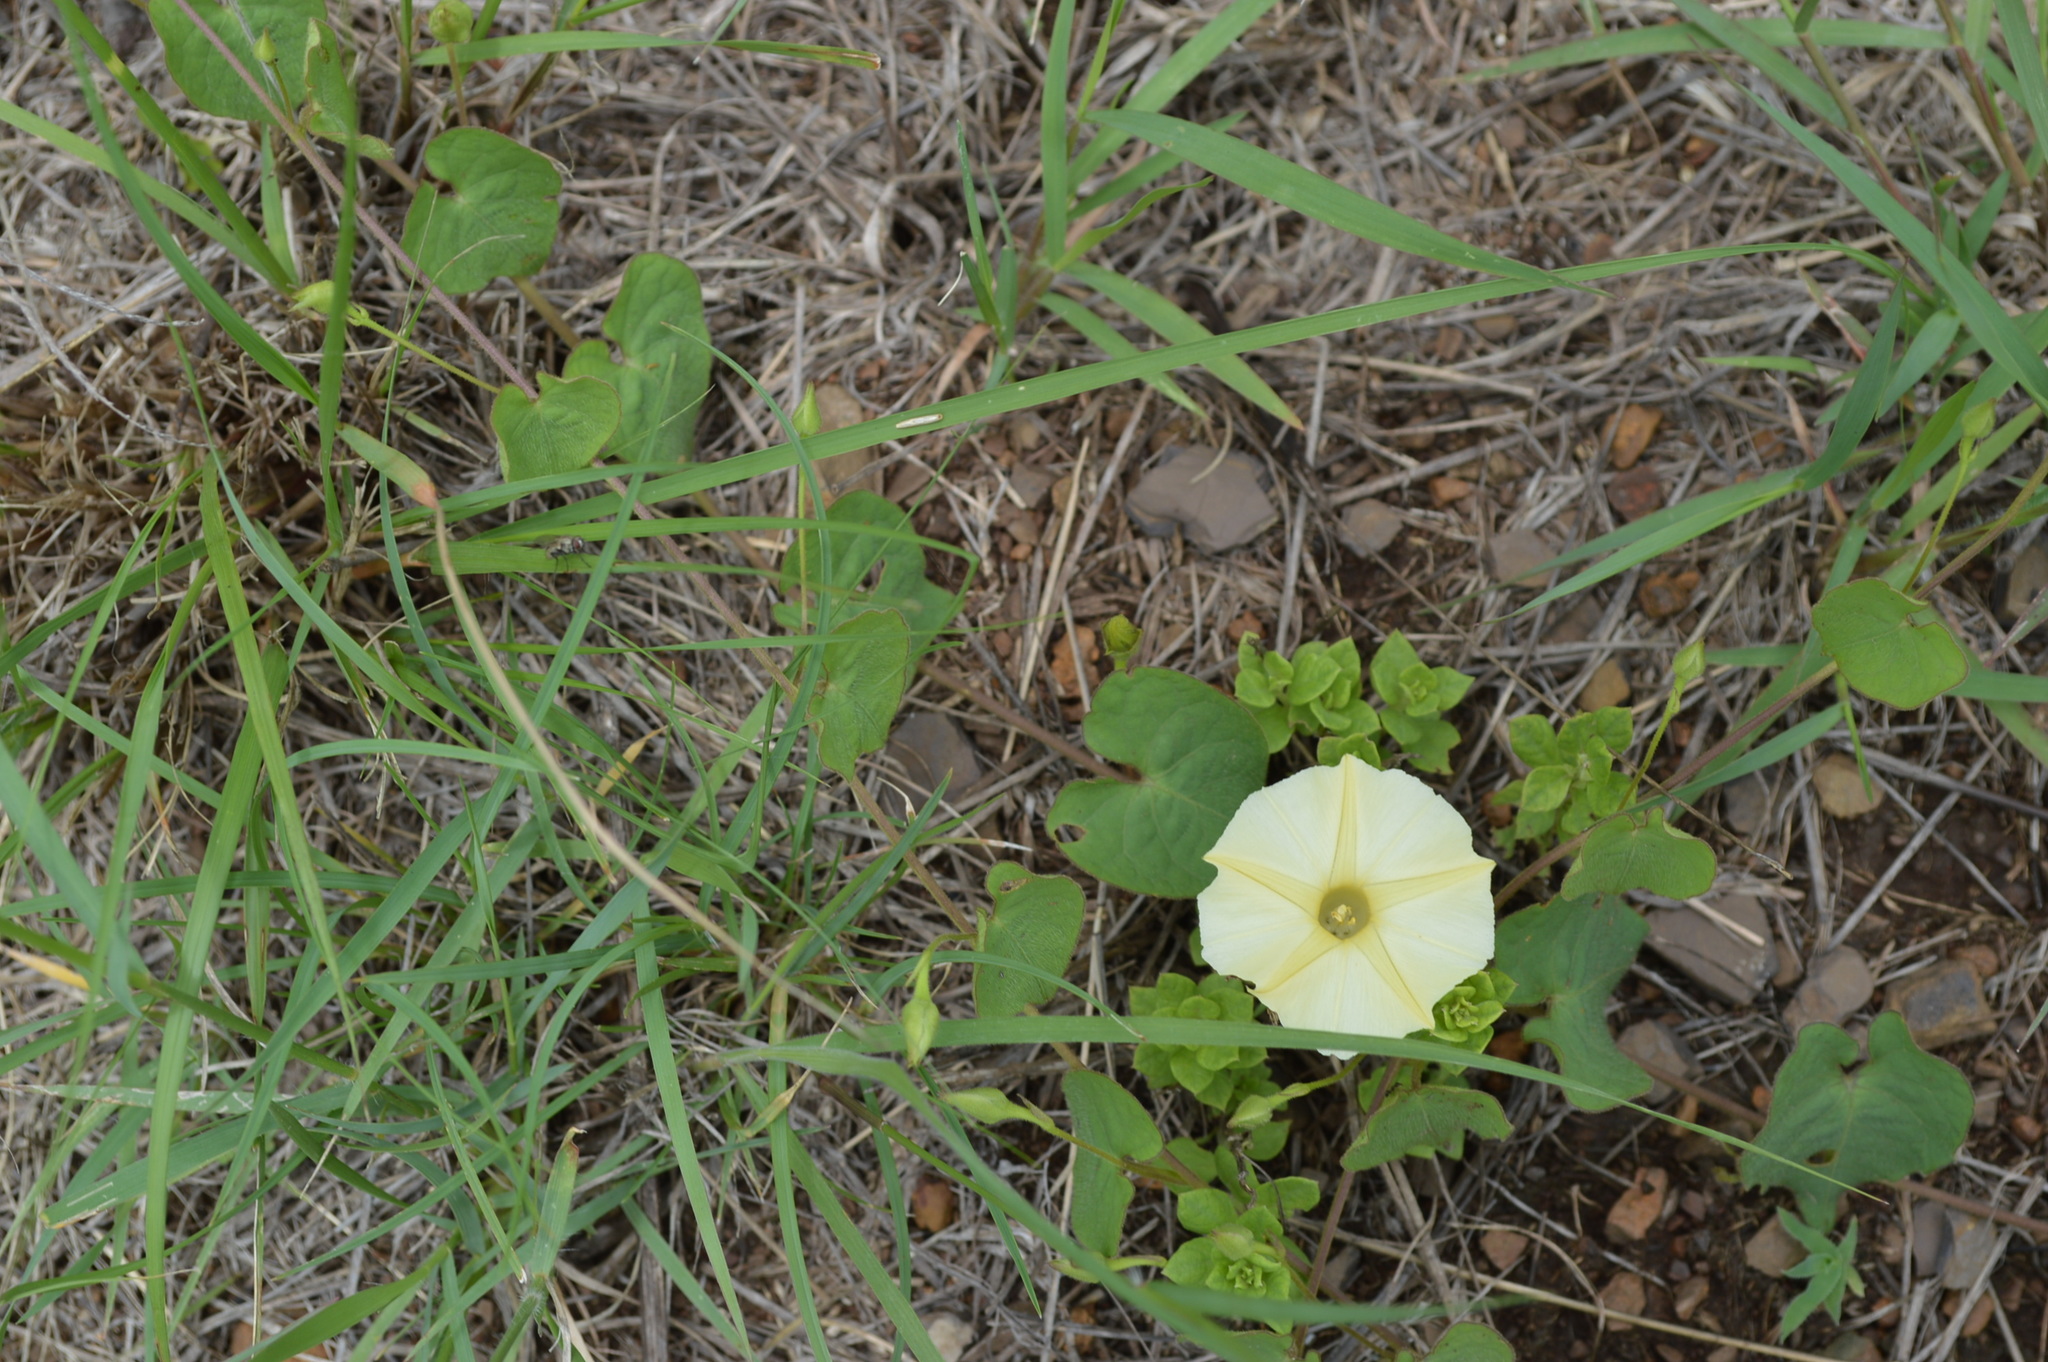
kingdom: Plantae
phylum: Tracheophyta
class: Magnoliopsida
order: Solanales
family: Convolvulaceae
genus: Ipomoea
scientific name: Ipomoea obscura
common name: Obscure morning-glory
